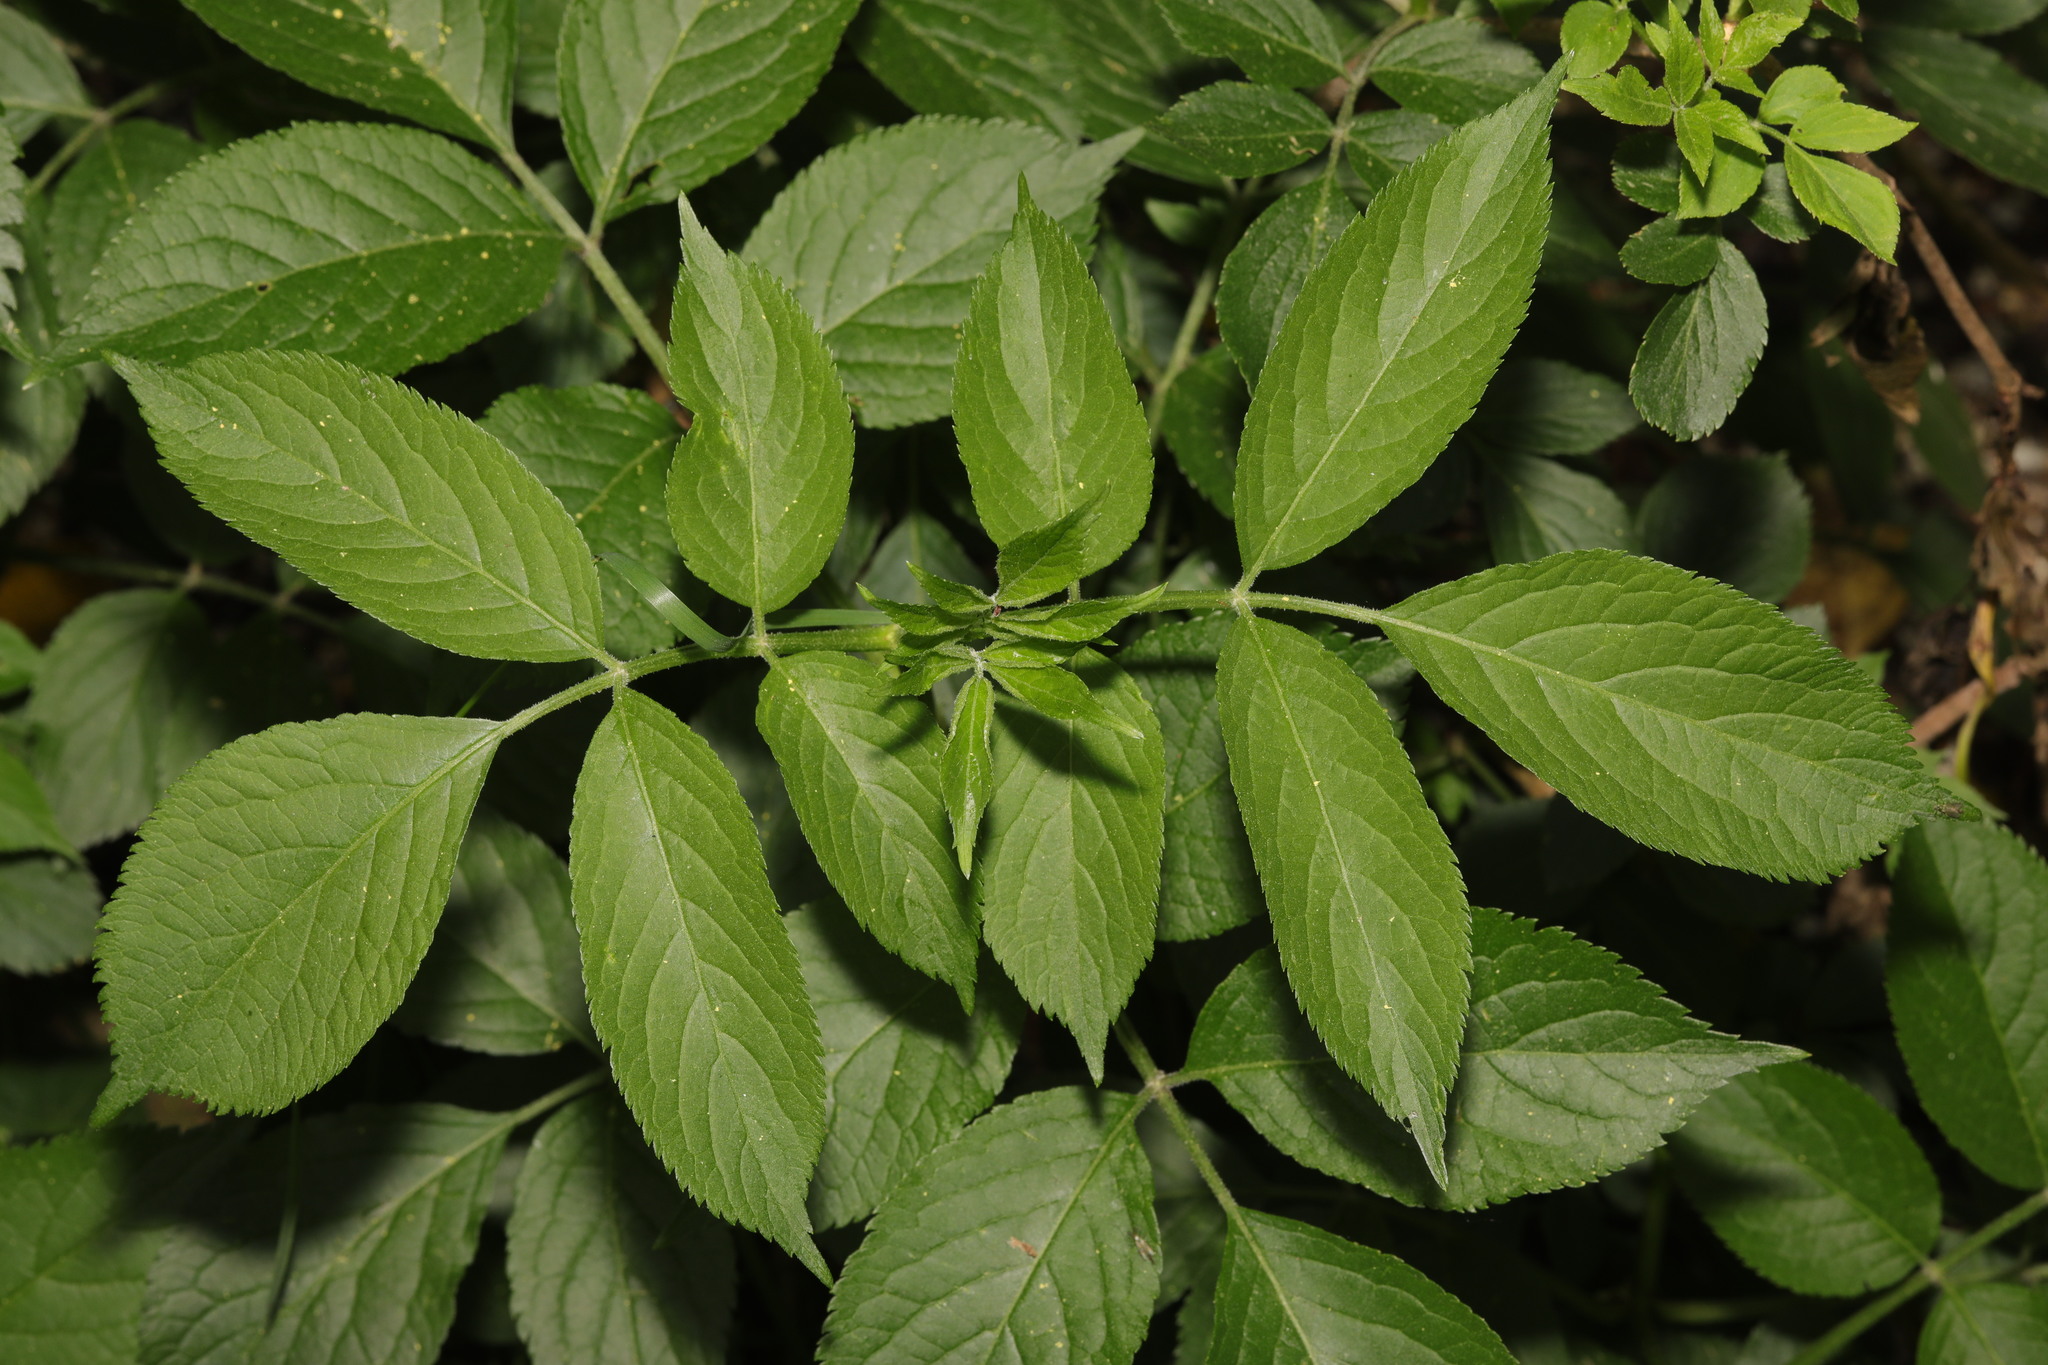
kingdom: Plantae
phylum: Tracheophyta
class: Magnoliopsida
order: Dipsacales
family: Viburnaceae
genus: Sambucus
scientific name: Sambucus nigra
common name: Elder
